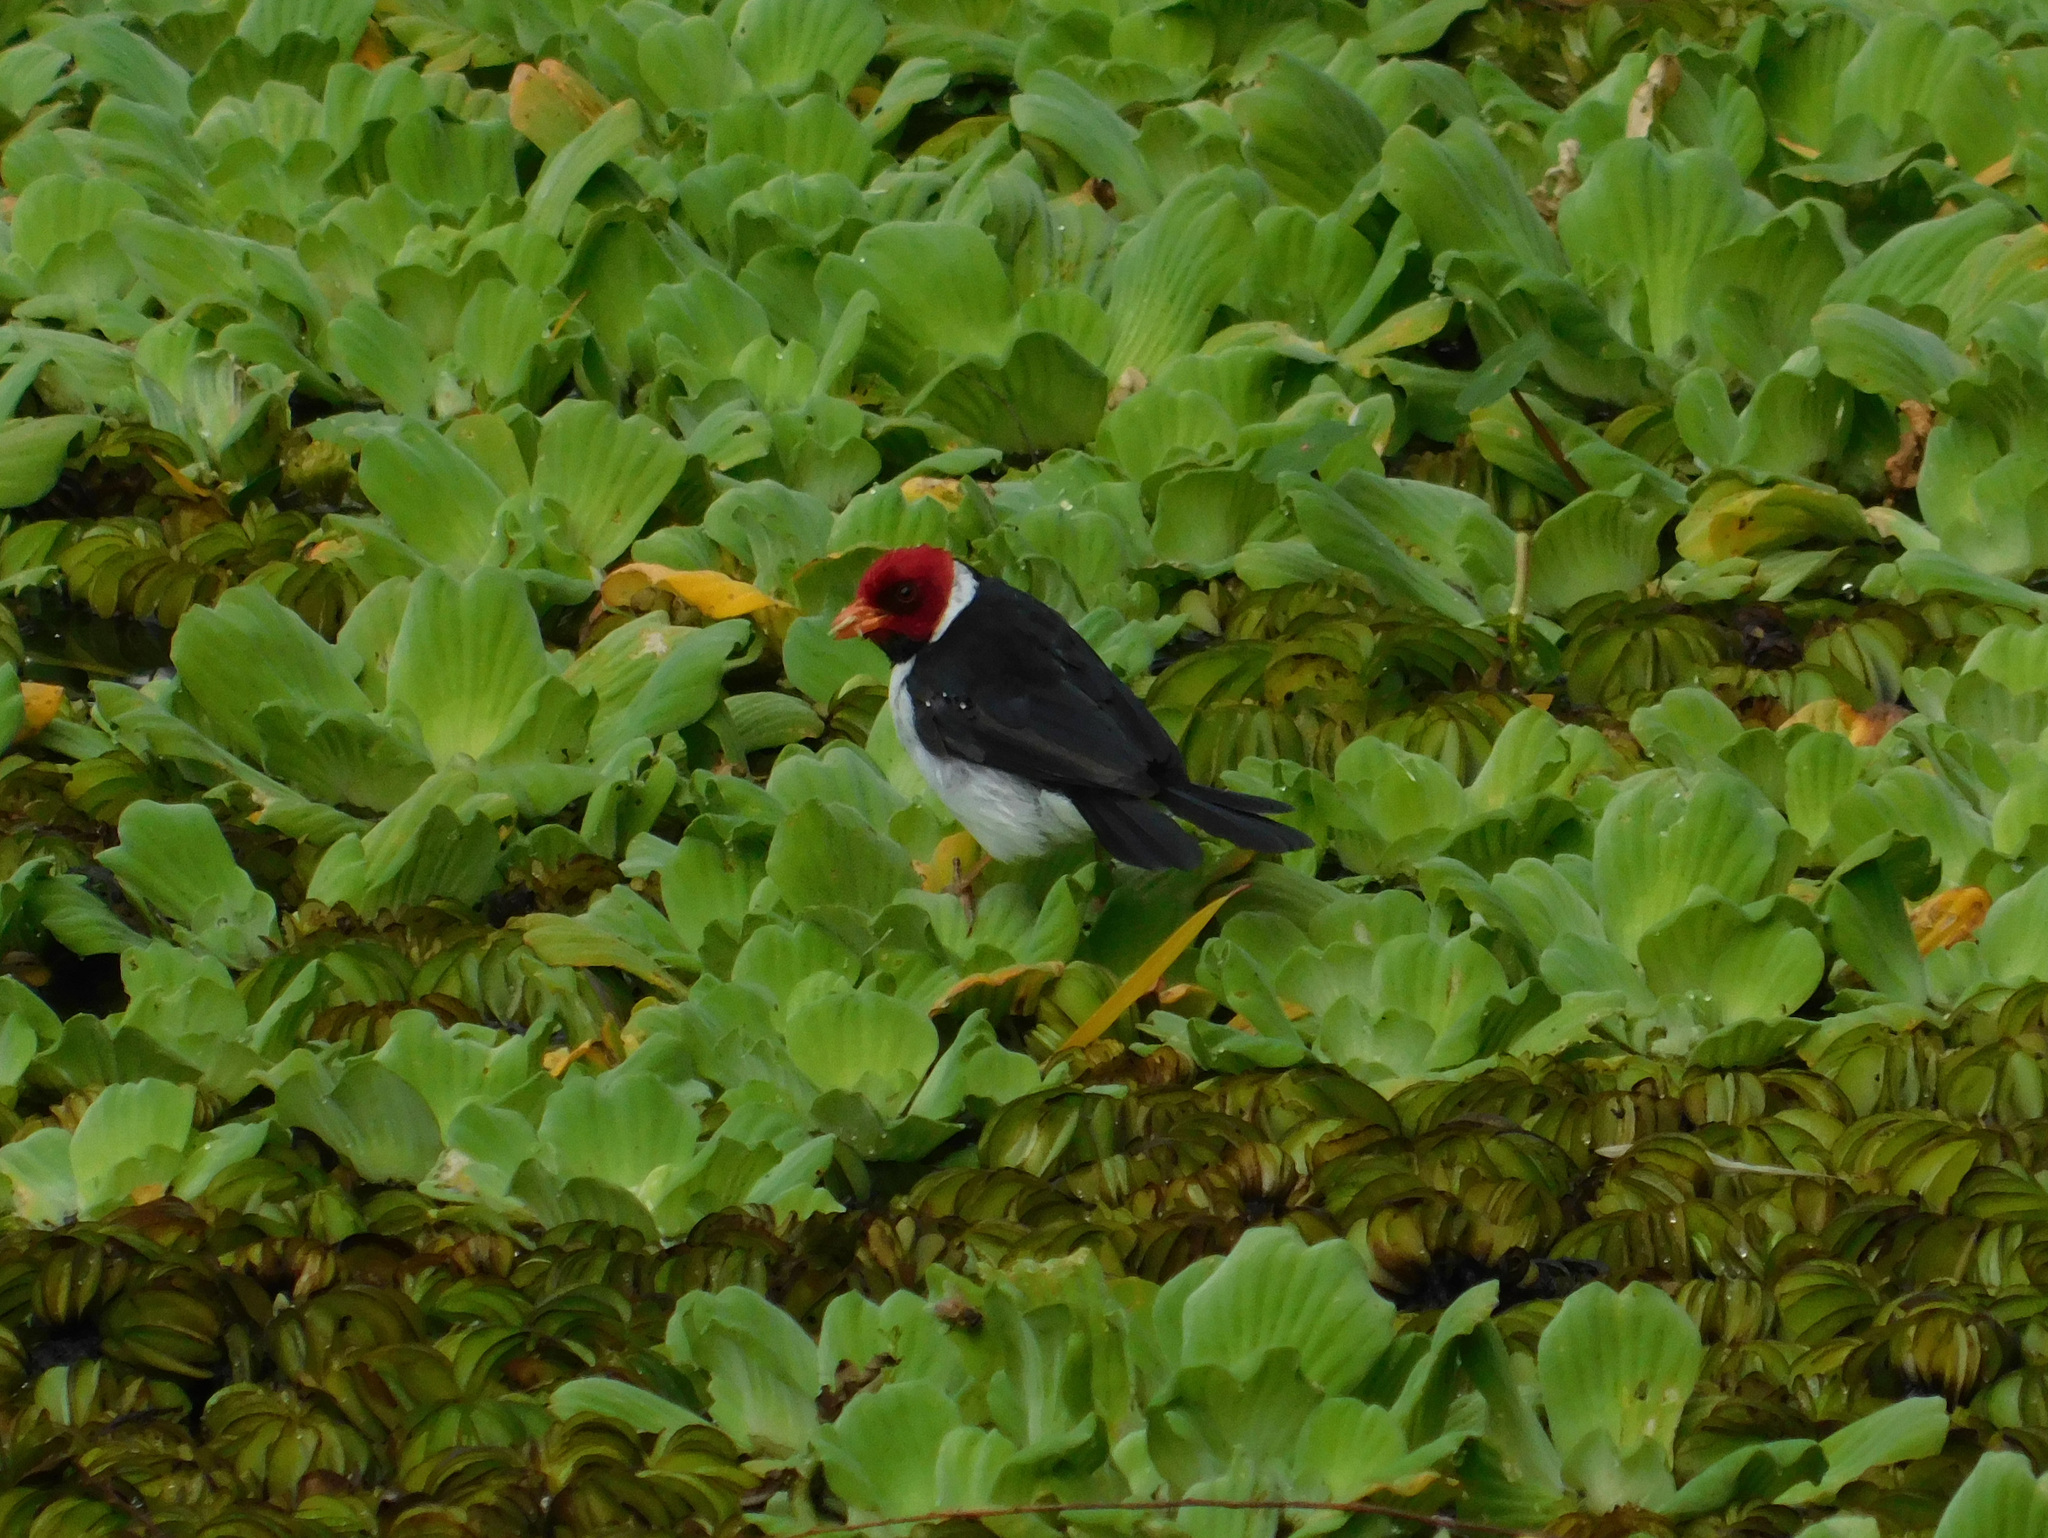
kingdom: Animalia
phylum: Chordata
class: Aves
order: Passeriformes
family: Thraupidae
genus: Paroaria
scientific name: Paroaria capitata
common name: Yellow-billed cardinal
